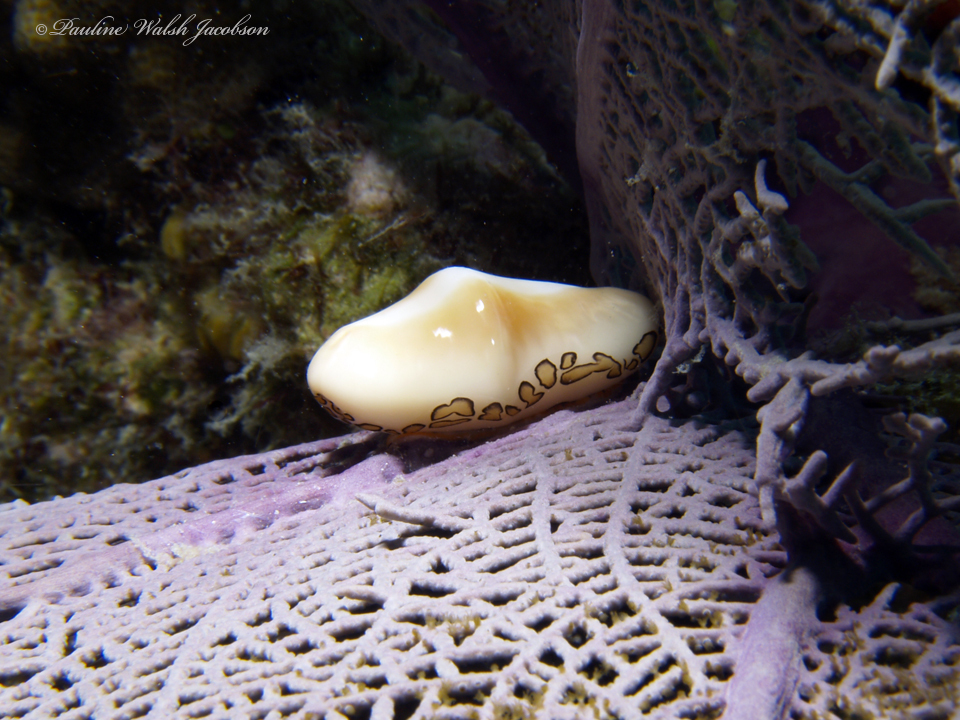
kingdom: Animalia
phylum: Mollusca
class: Gastropoda
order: Littorinimorpha
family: Ovulidae
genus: Cyphoma
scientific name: Cyphoma gibbosum
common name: Flamingo tongue
